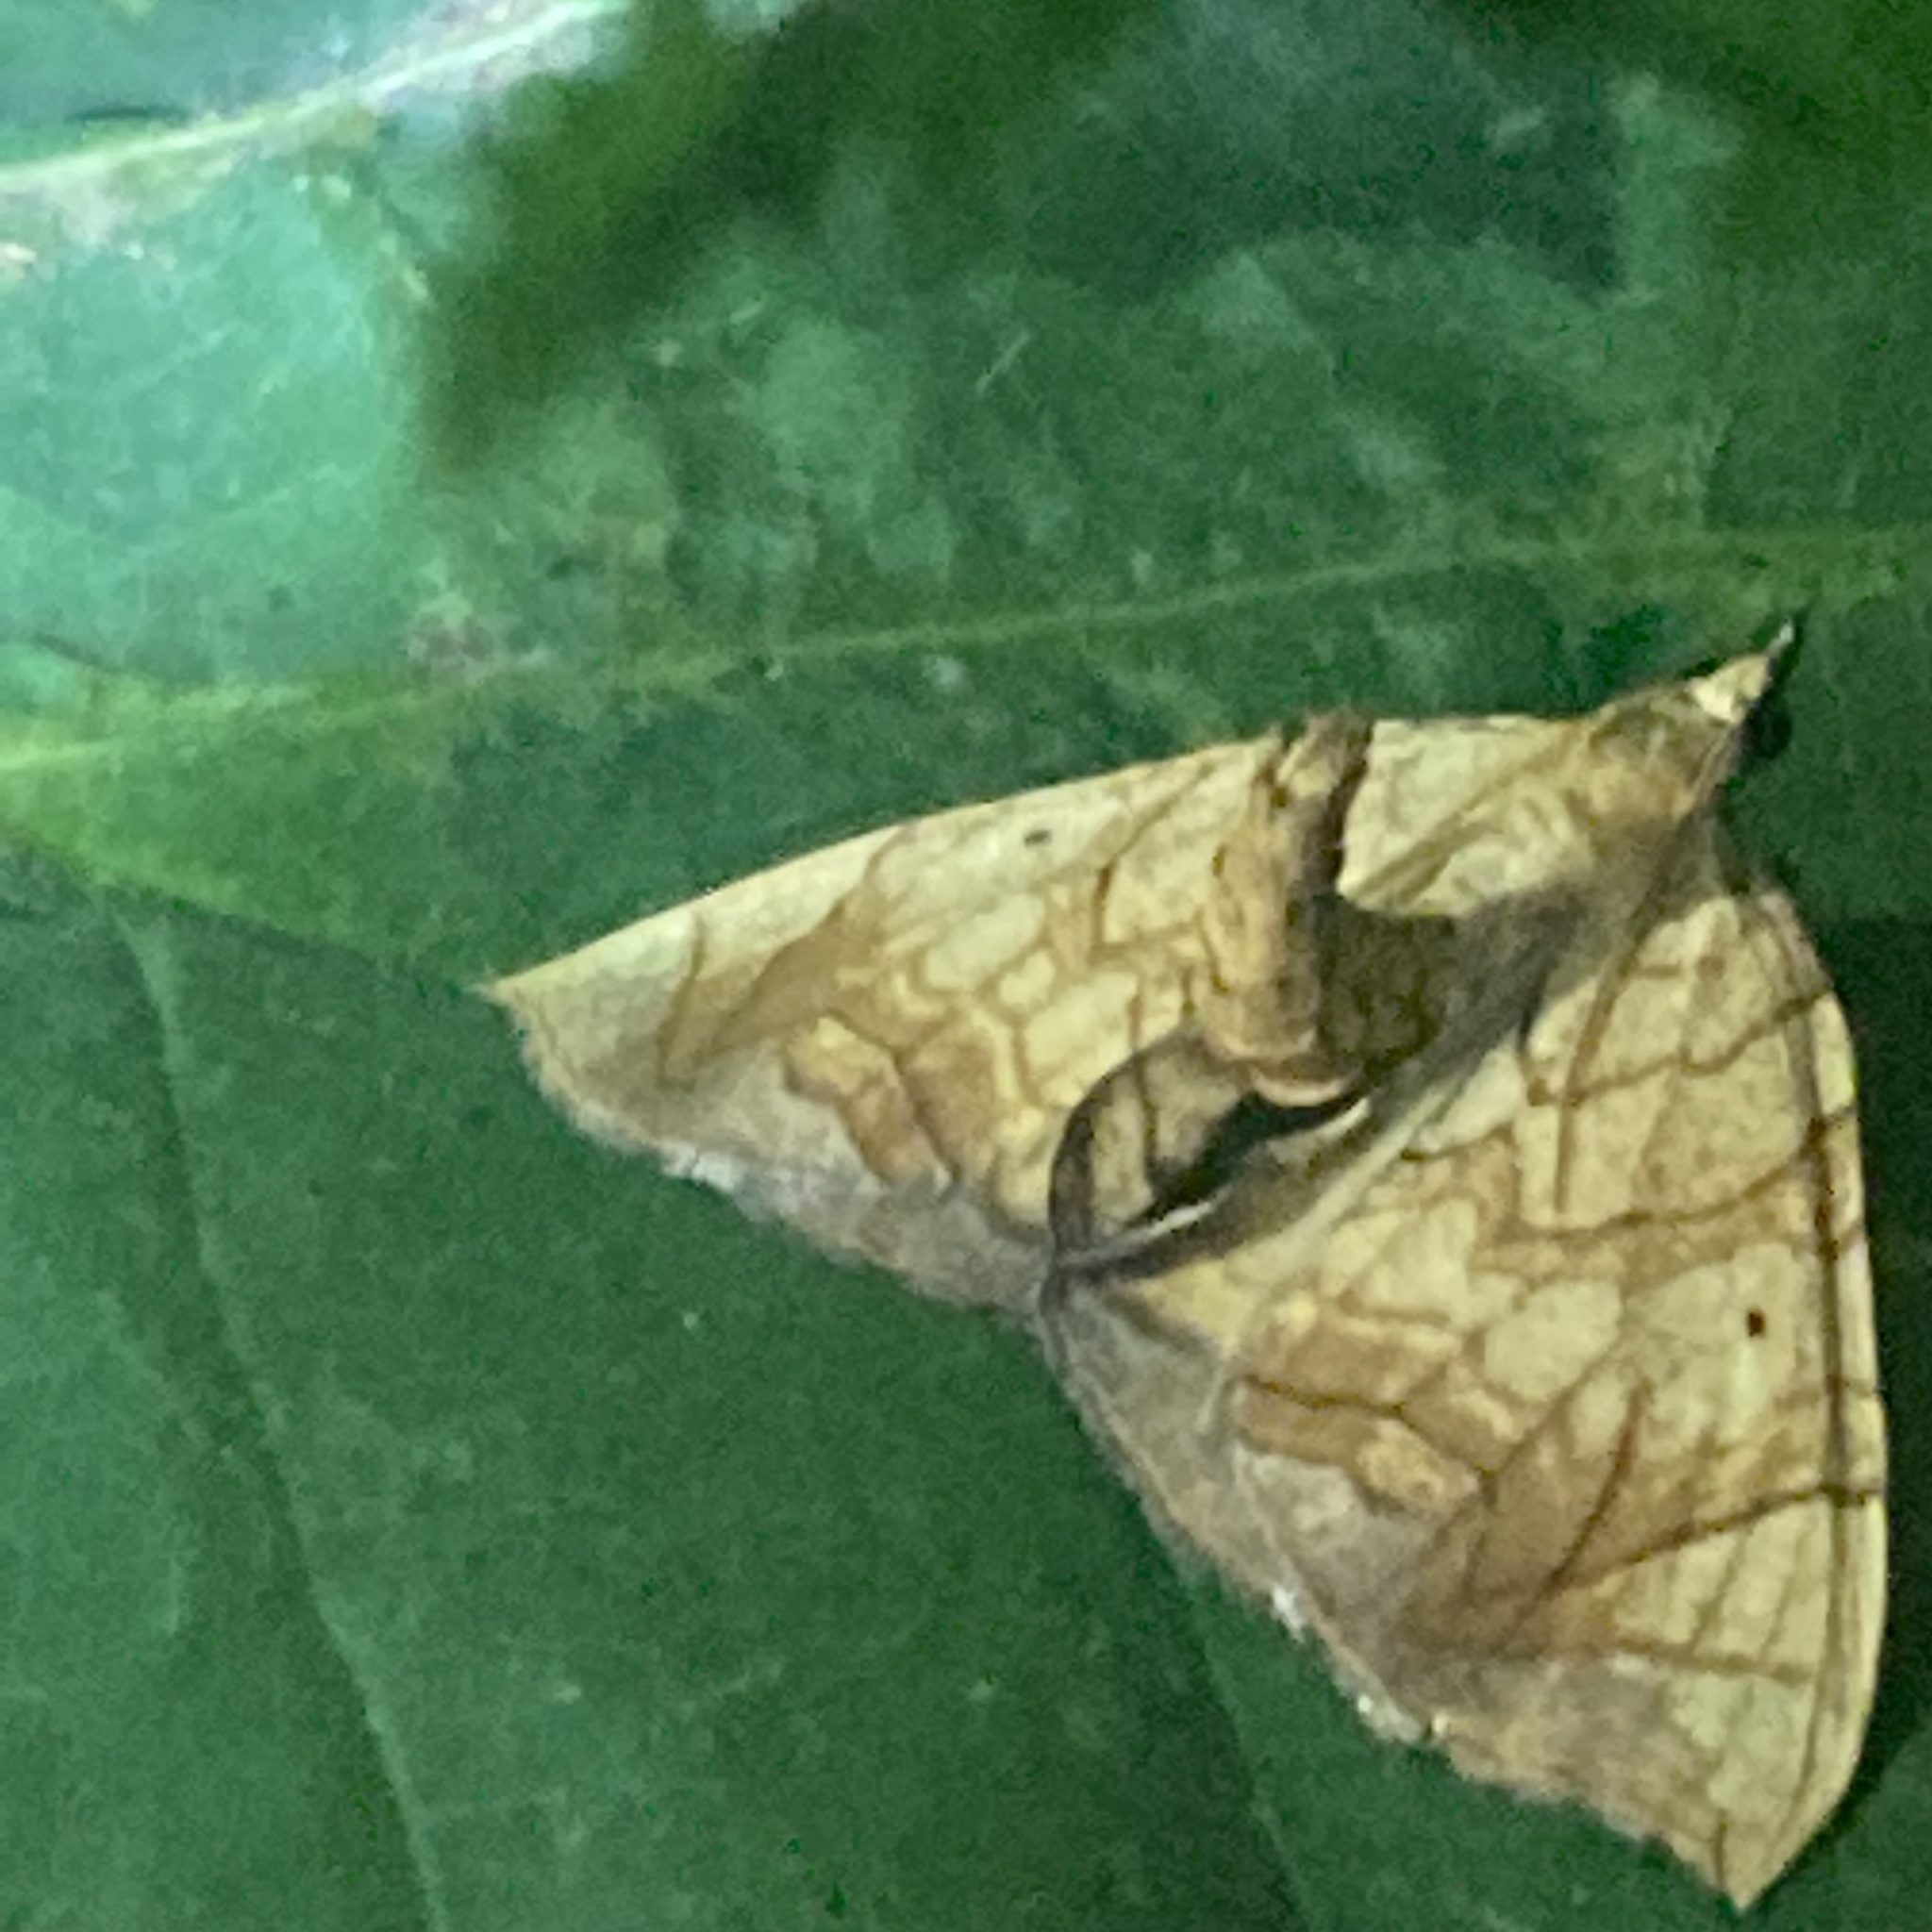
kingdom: Animalia
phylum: Arthropoda
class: Insecta
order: Lepidoptera
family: Geometridae
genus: Eulithis
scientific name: Eulithis
